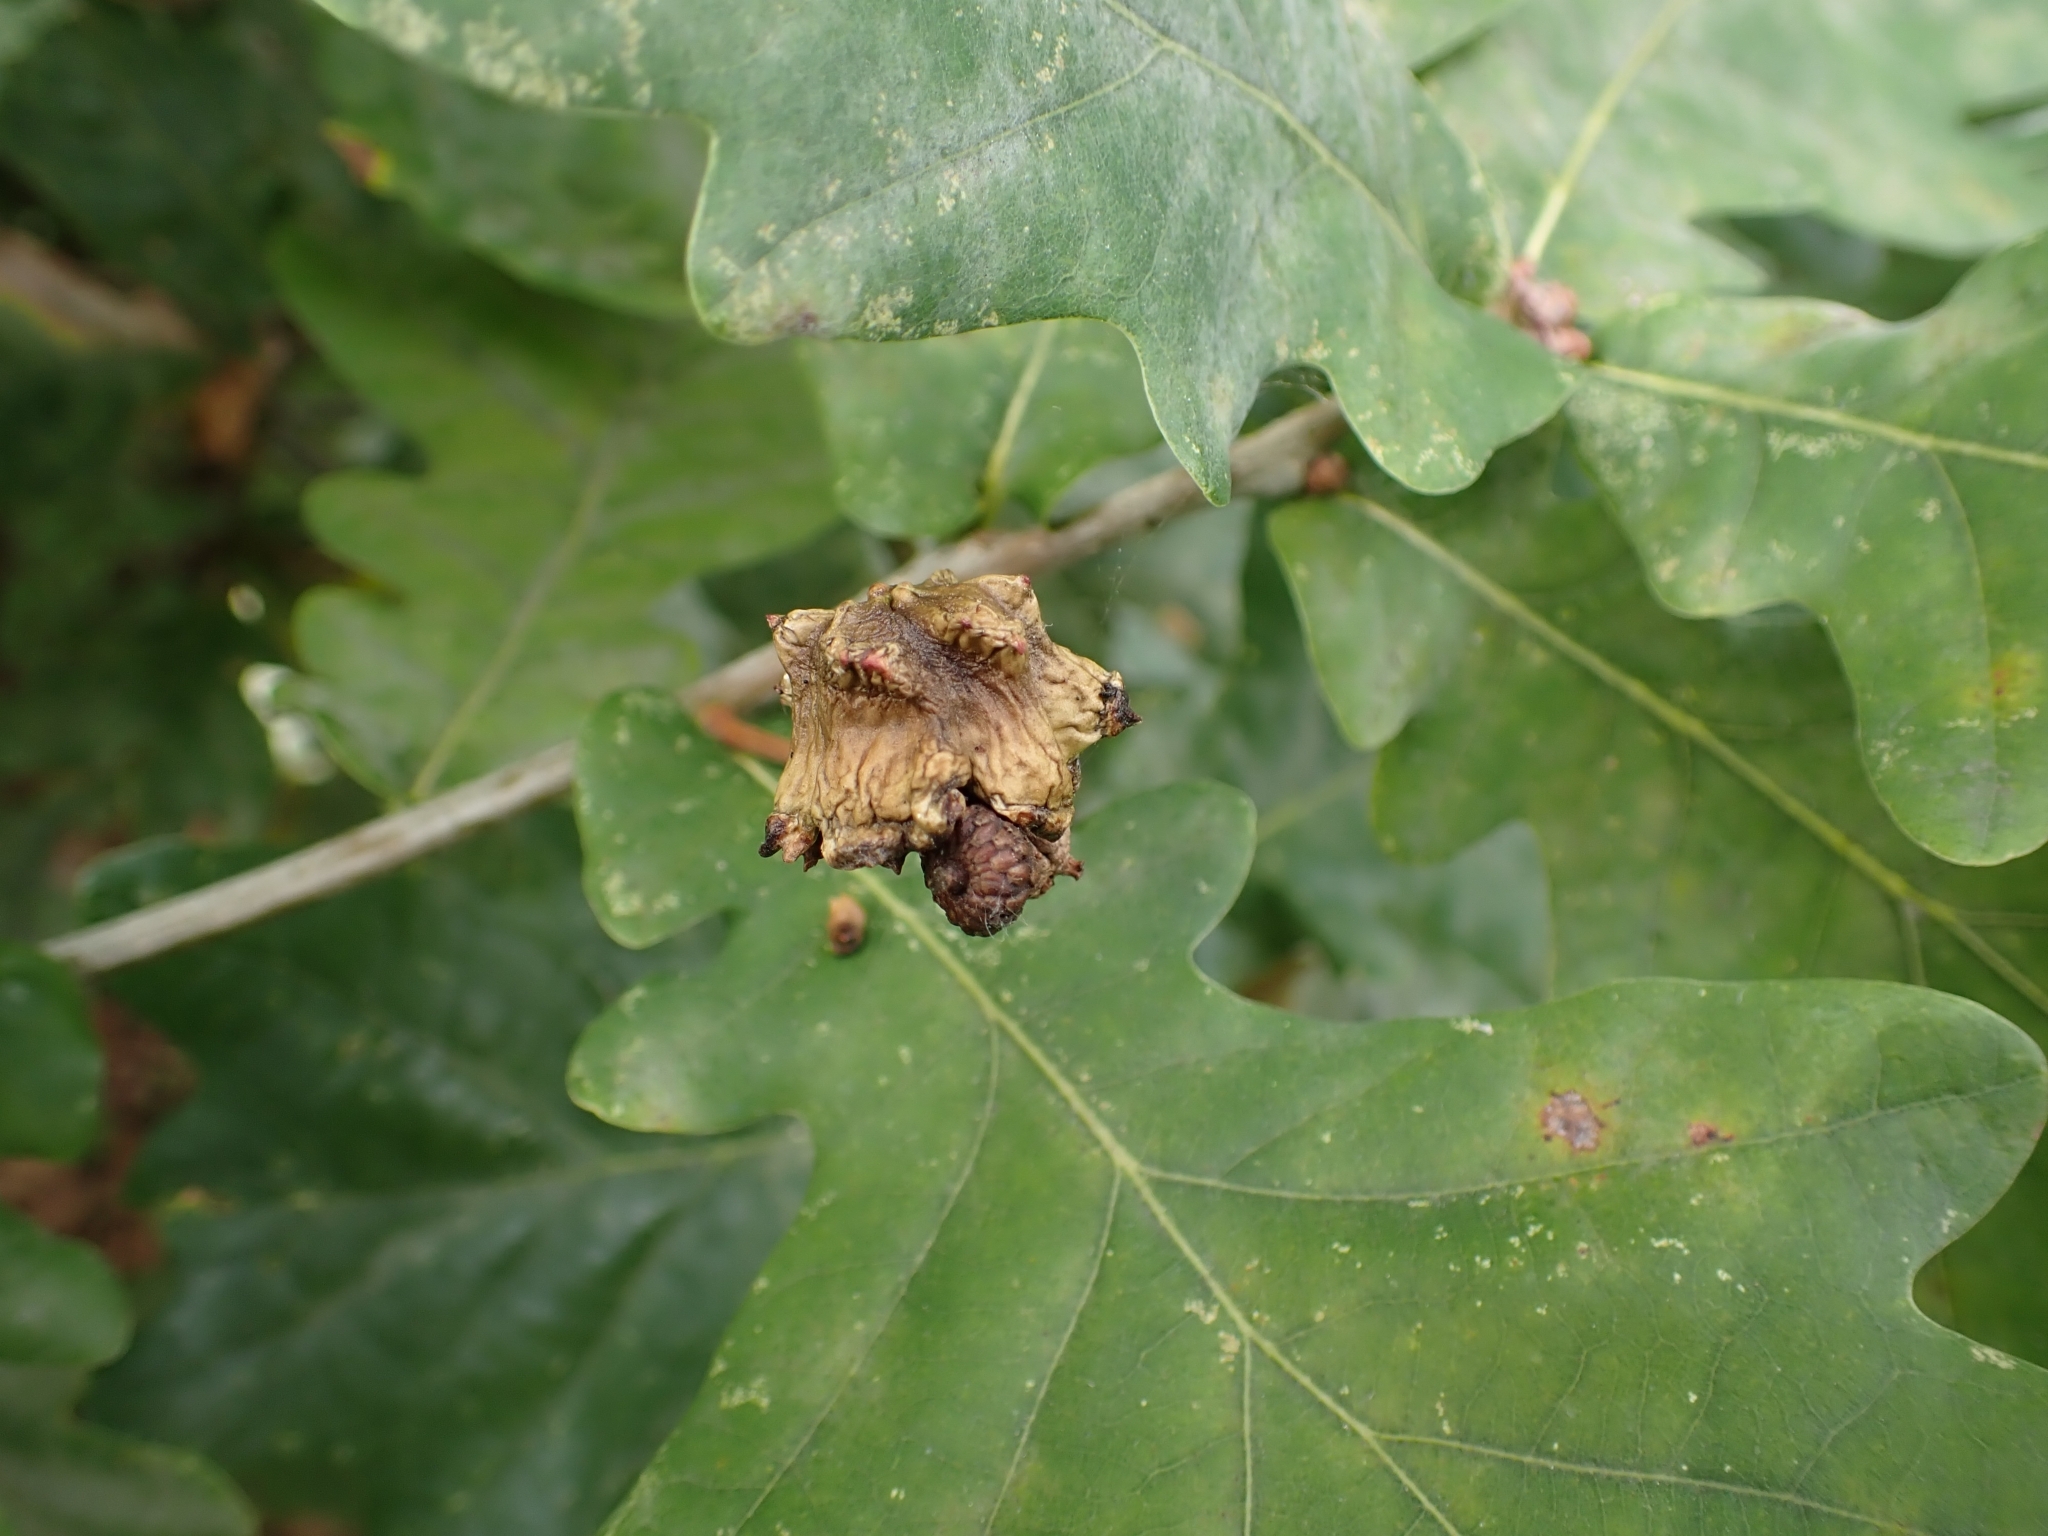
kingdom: Animalia
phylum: Arthropoda
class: Insecta
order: Hymenoptera
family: Cynipidae
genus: Andricus
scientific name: Andricus quercuscalicis
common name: Knopper gall
